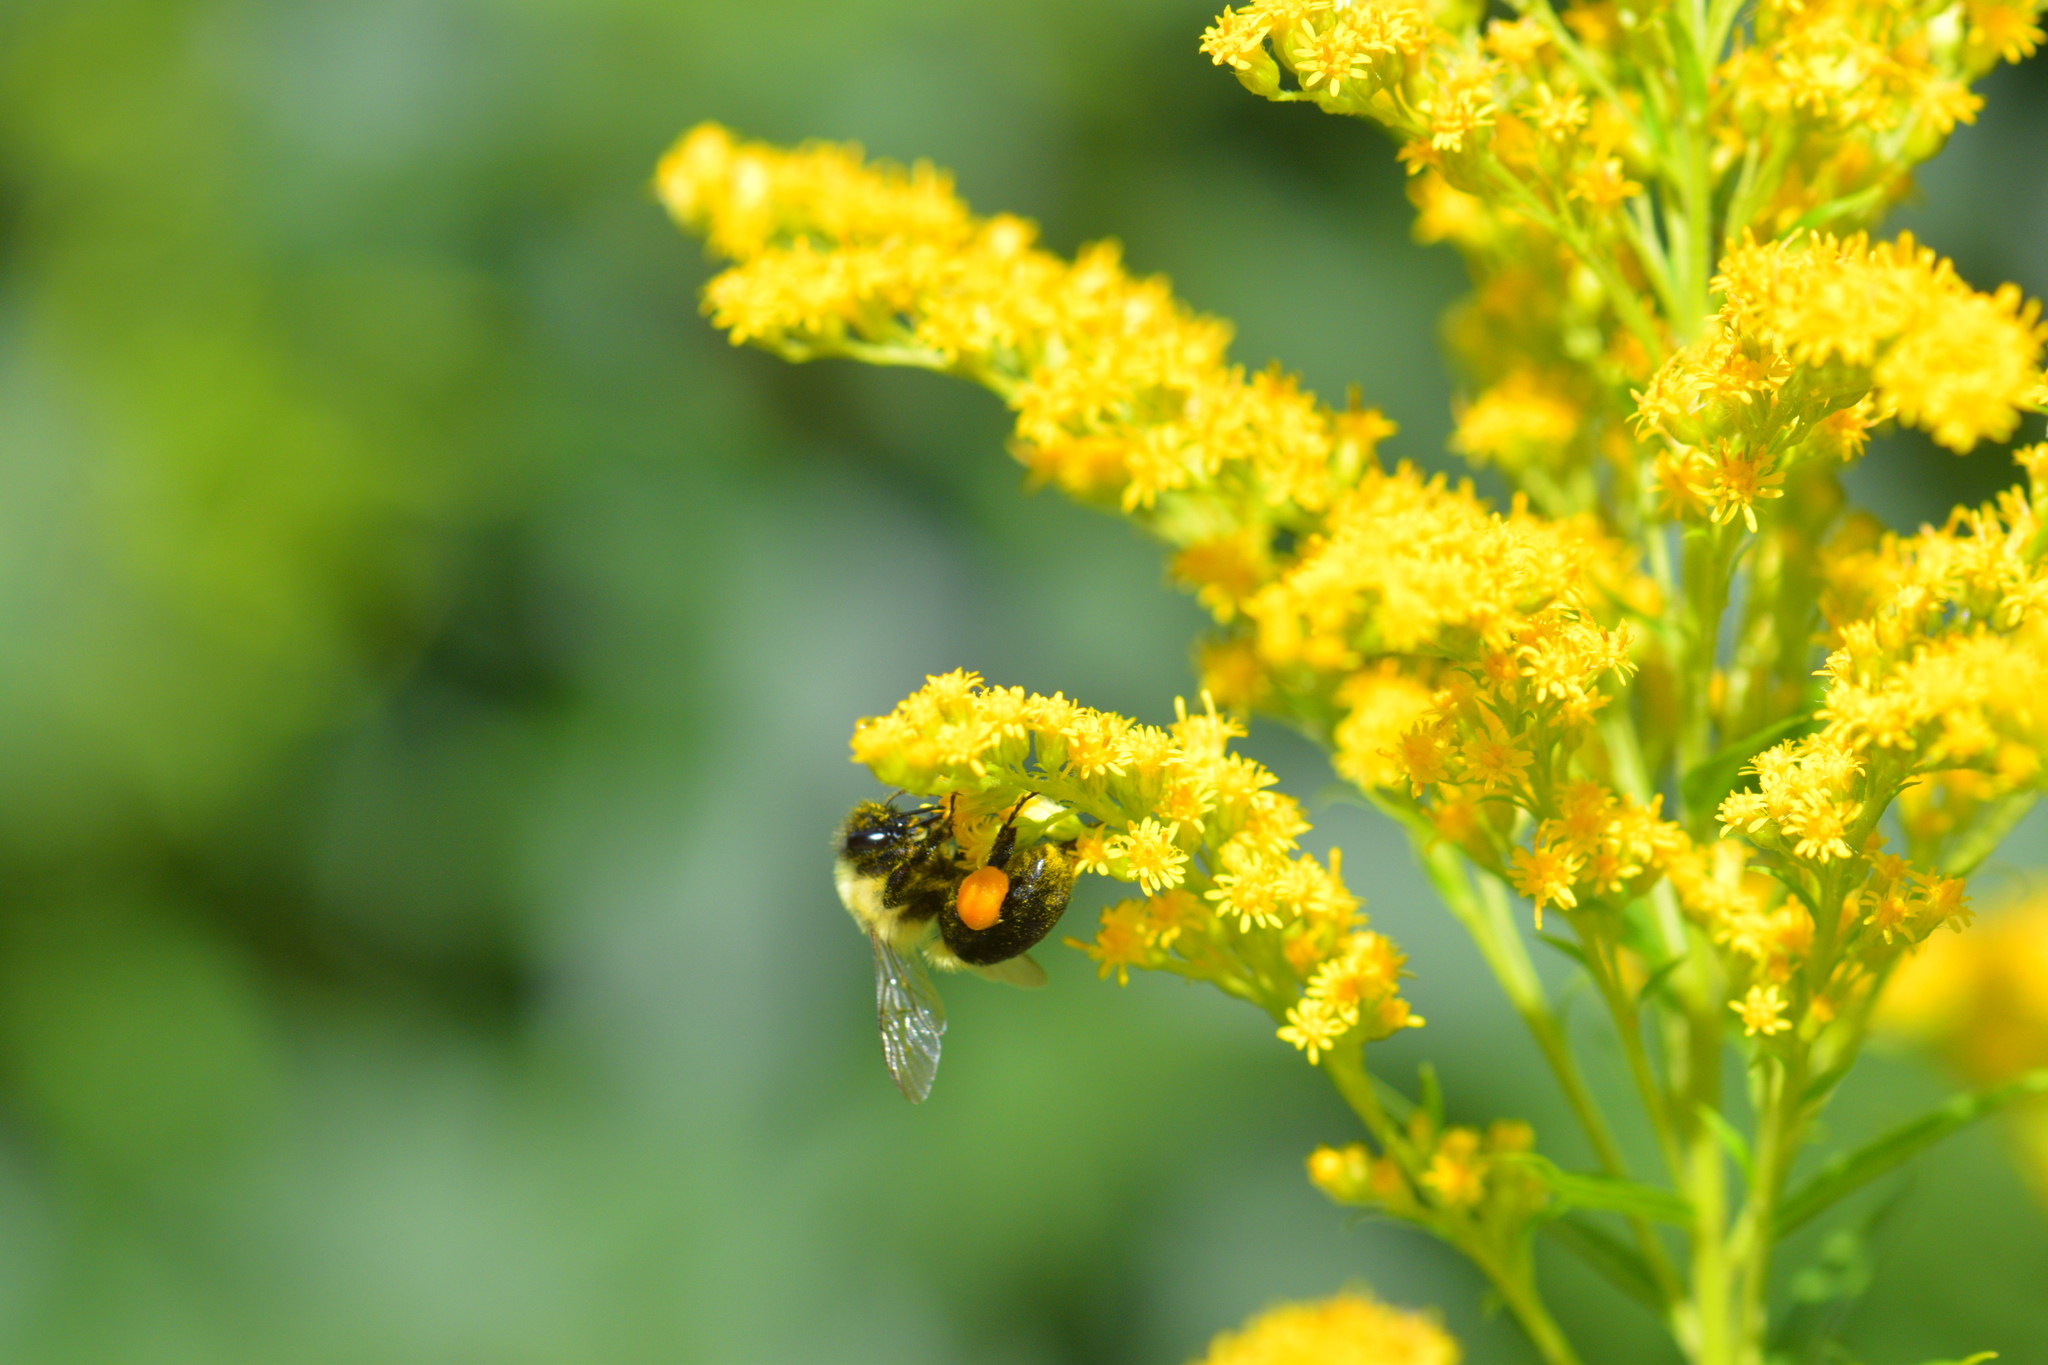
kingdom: Animalia
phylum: Arthropoda
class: Insecta
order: Hymenoptera
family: Apidae
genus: Bombus
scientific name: Bombus impatiens
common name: Common eastern bumble bee
